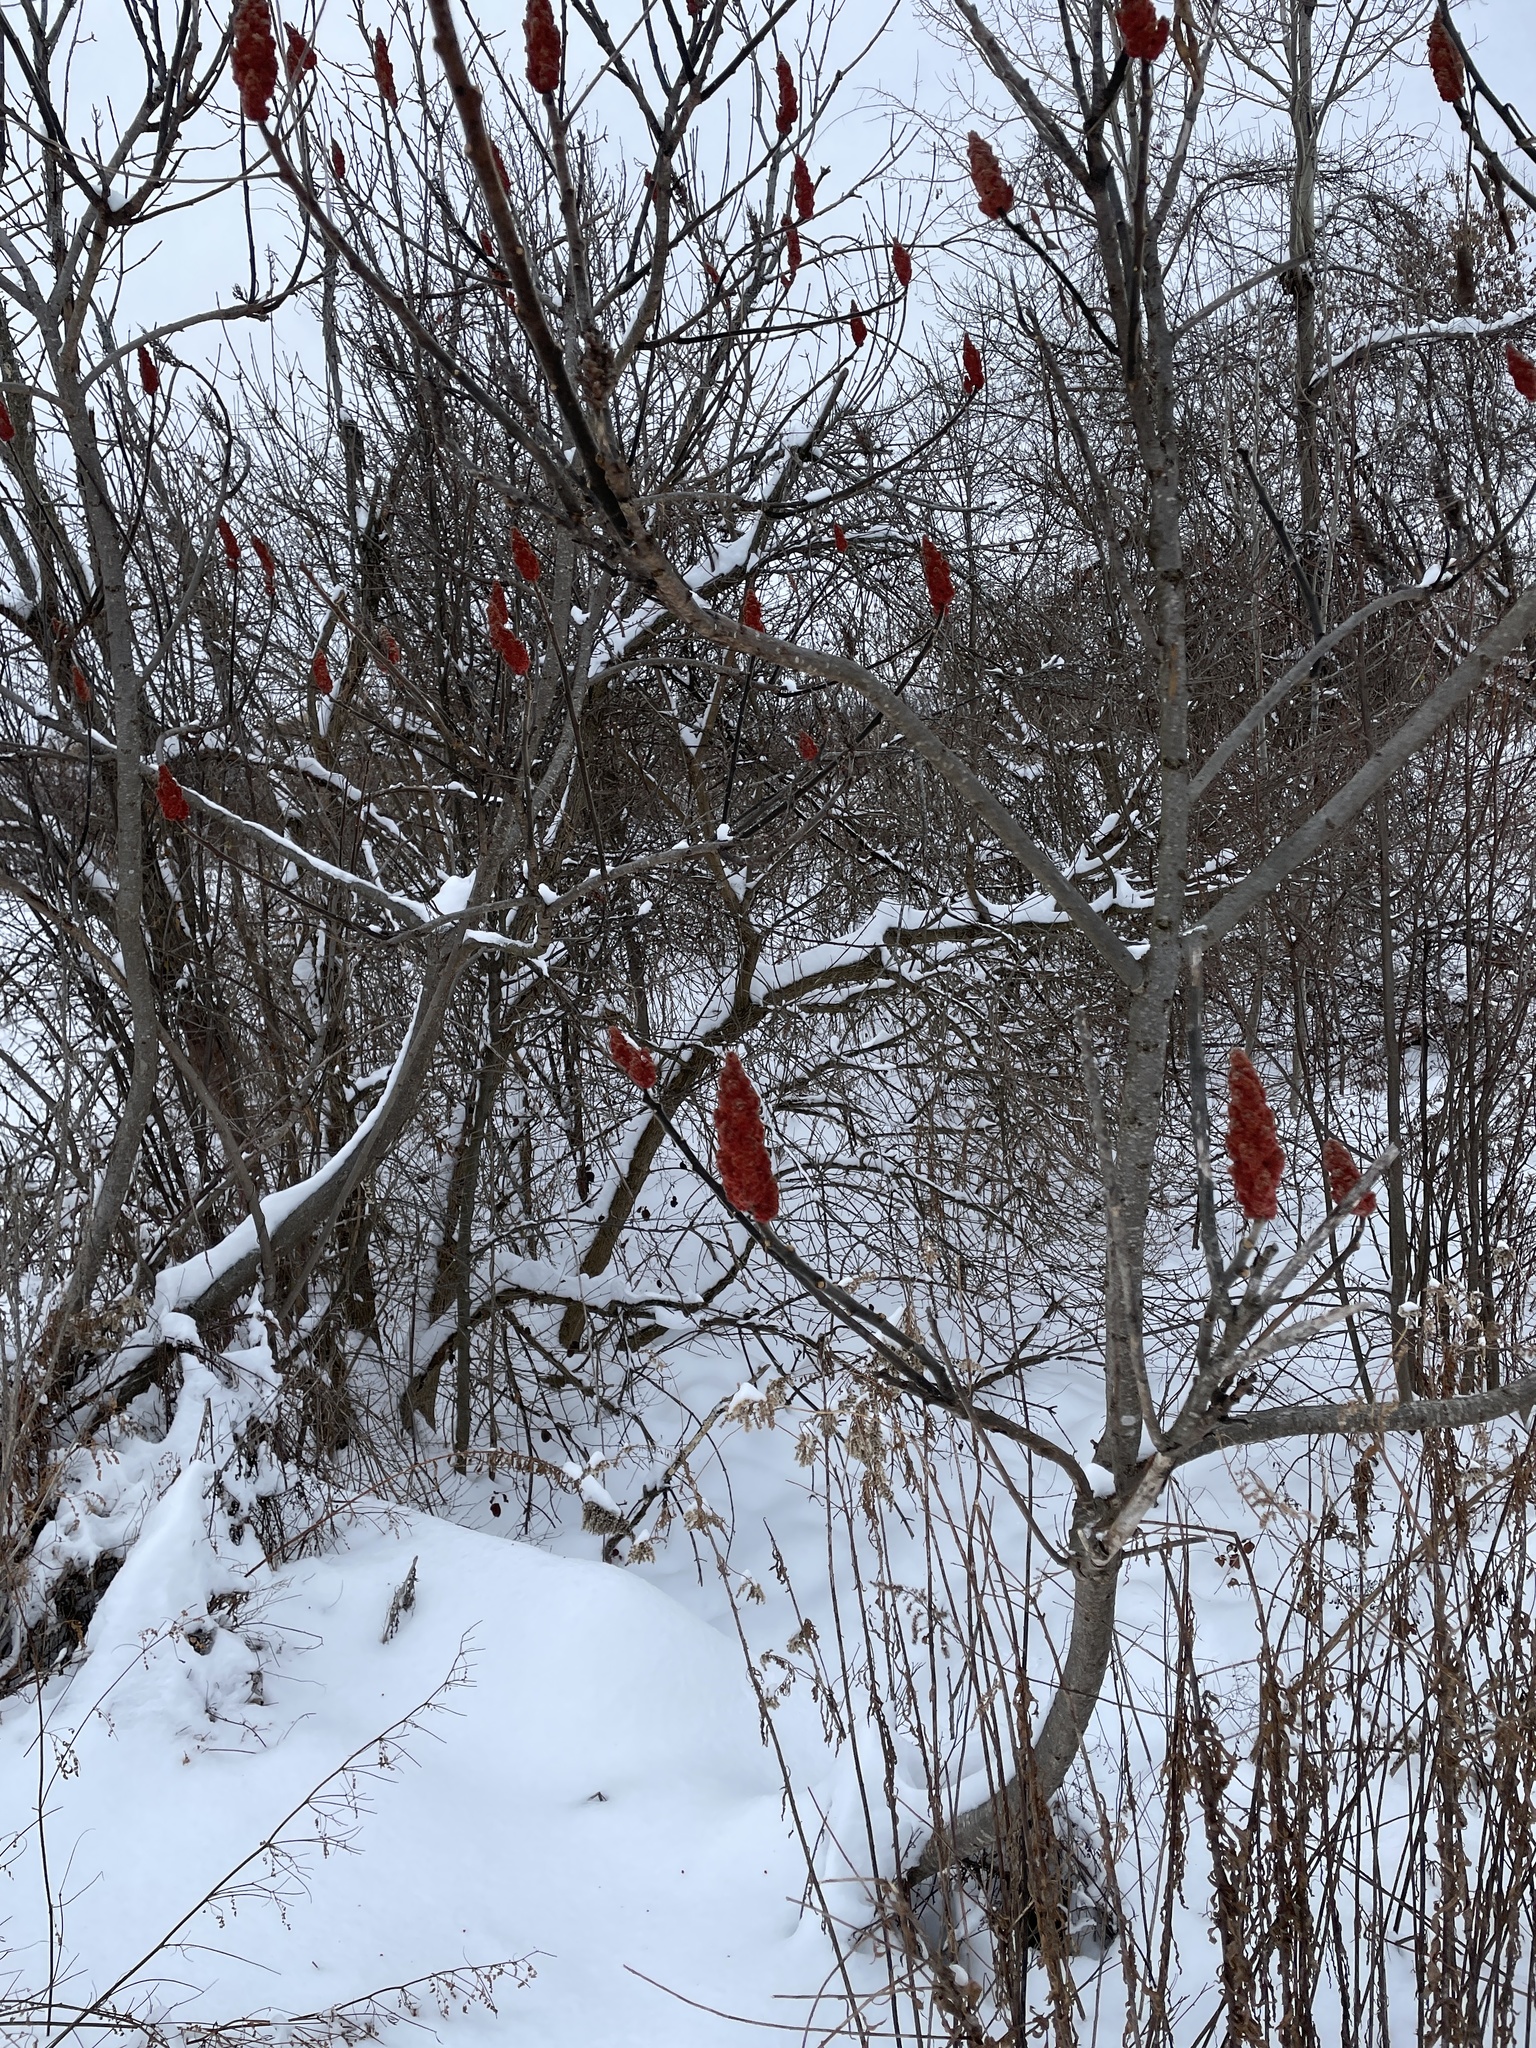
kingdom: Plantae
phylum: Tracheophyta
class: Magnoliopsida
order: Sapindales
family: Anacardiaceae
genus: Rhus
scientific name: Rhus typhina
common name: Staghorn sumac
